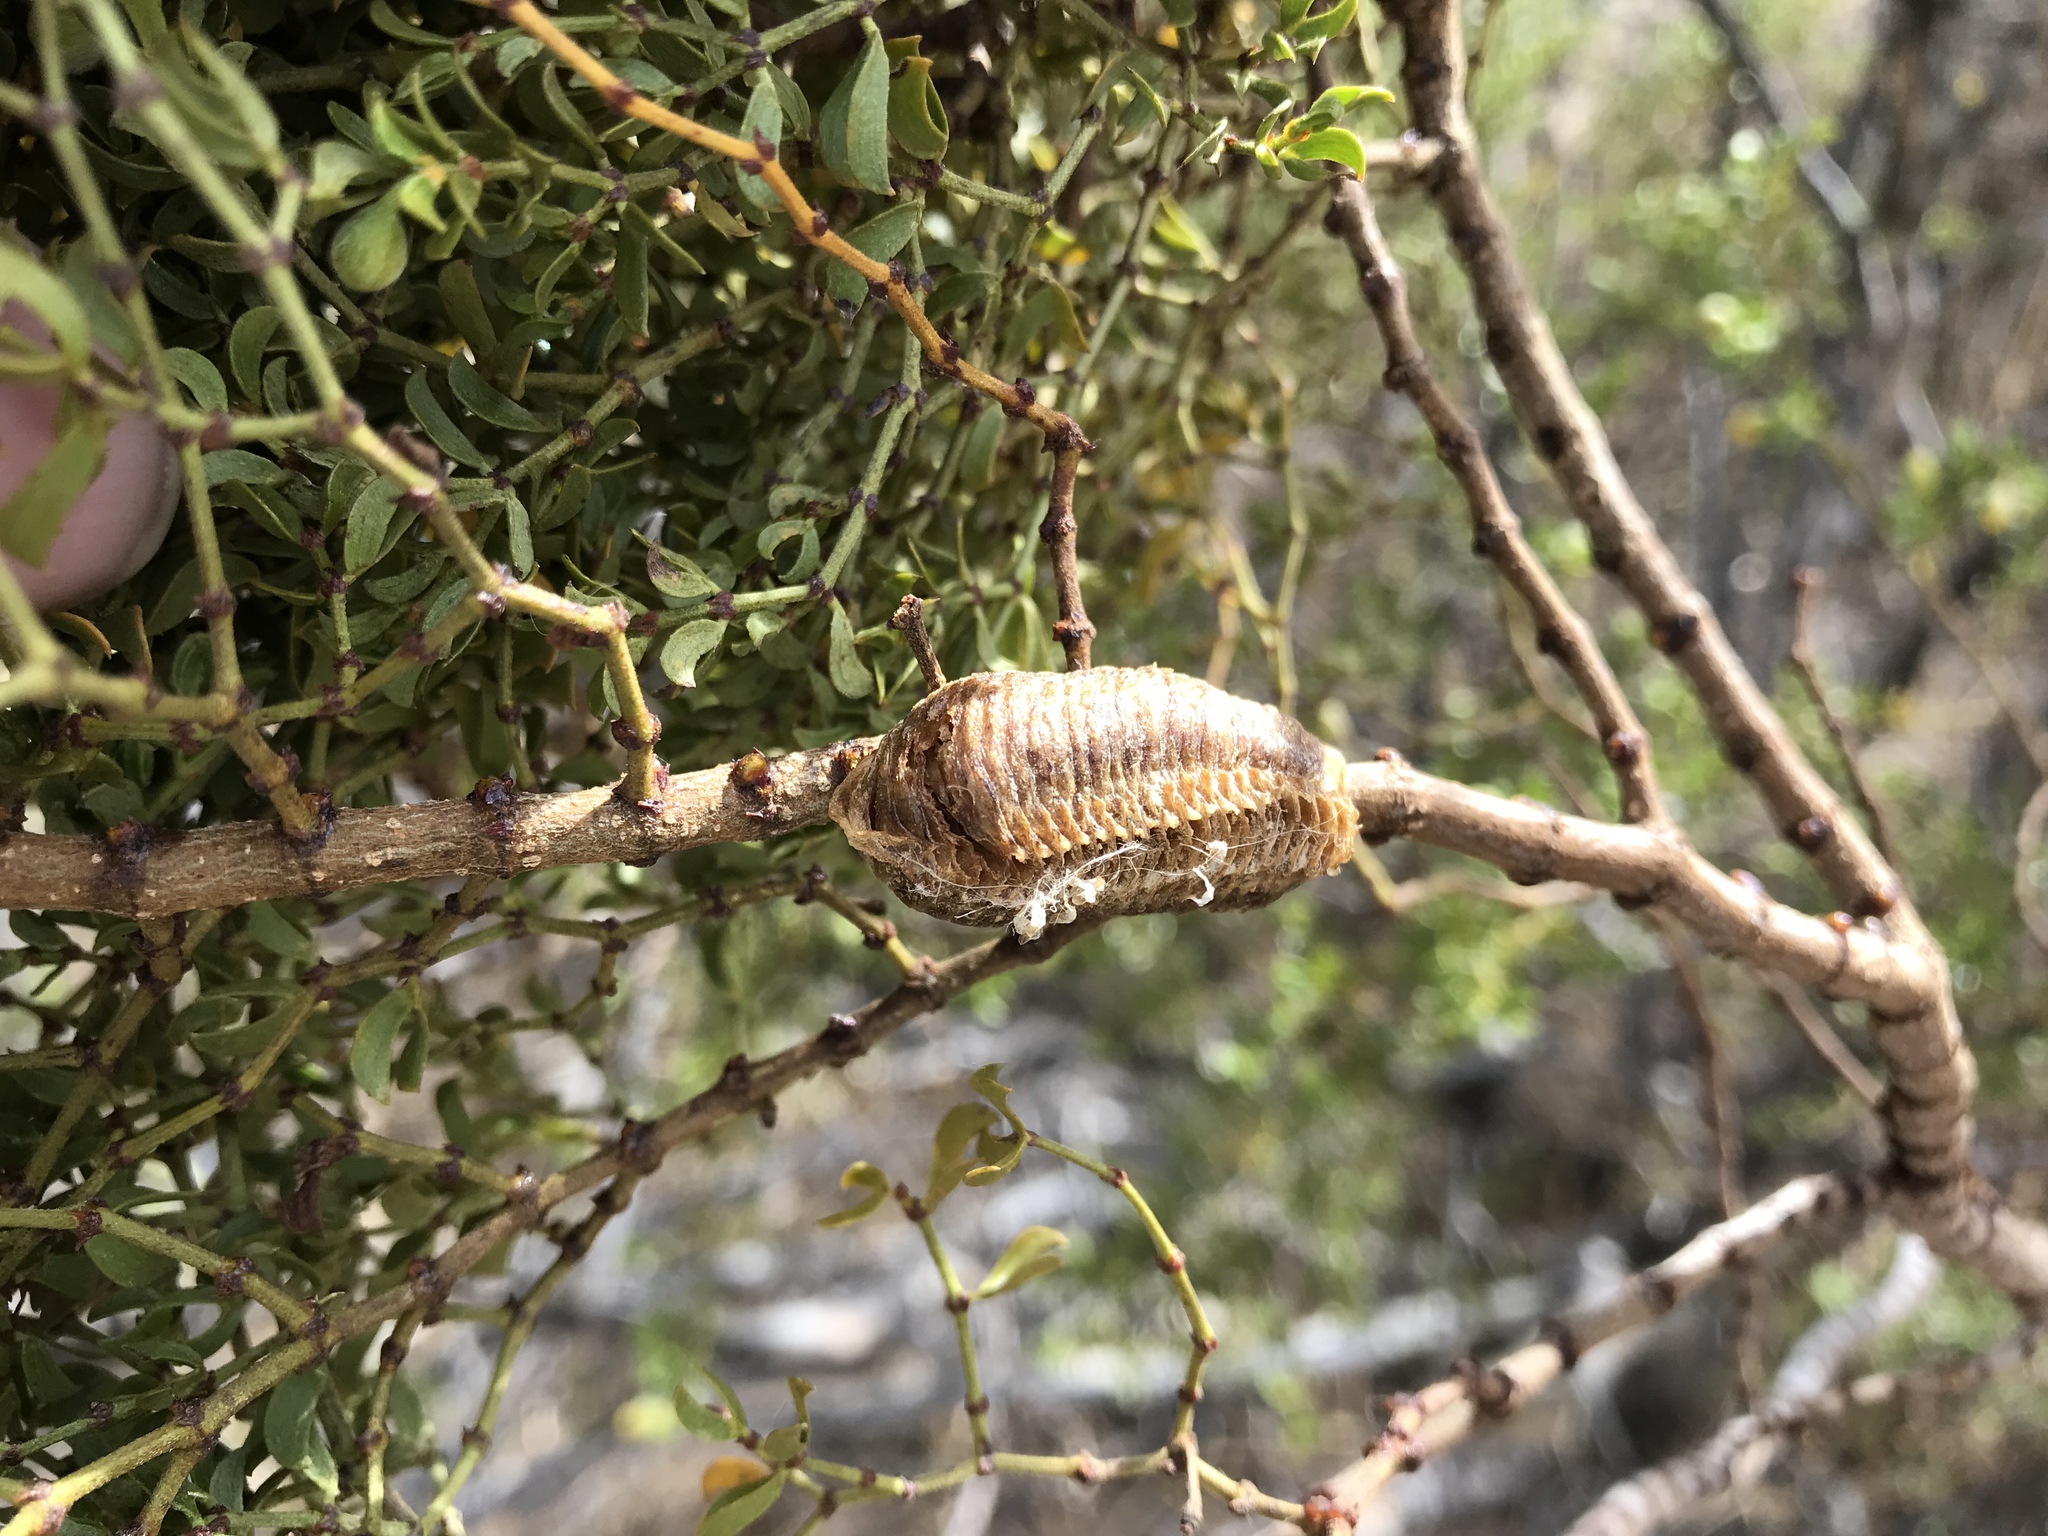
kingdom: Animalia
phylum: Arthropoda
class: Insecta
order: Mantodea
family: Mantidae
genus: Stagmomantis
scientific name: Stagmomantis carolina
